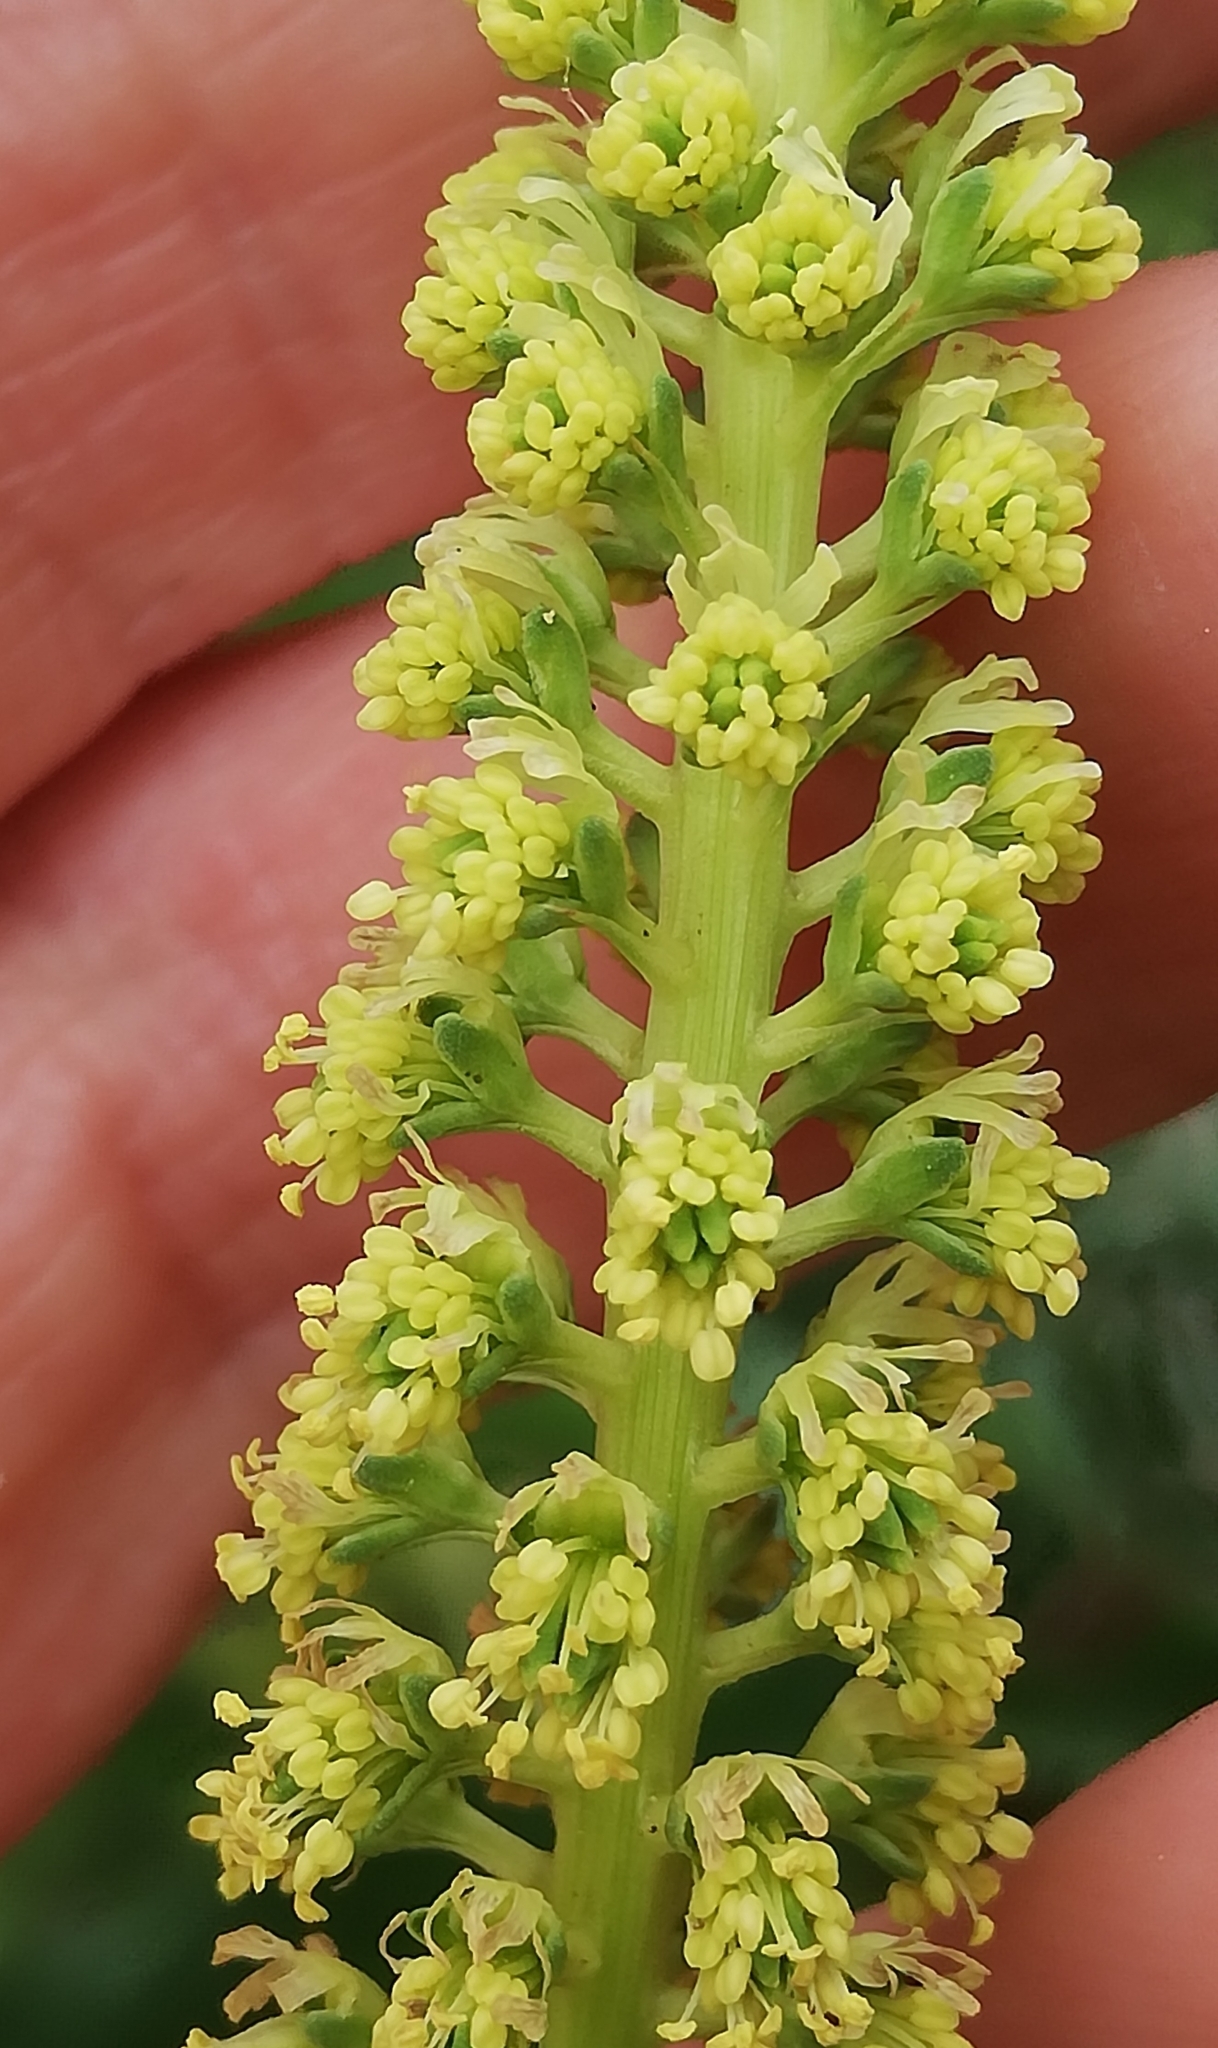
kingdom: Plantae
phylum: Tracheophyta
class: Magnoliopsida
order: Brassicales
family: Resedaceae
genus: Reseda
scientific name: Reseda luteola
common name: Weld
